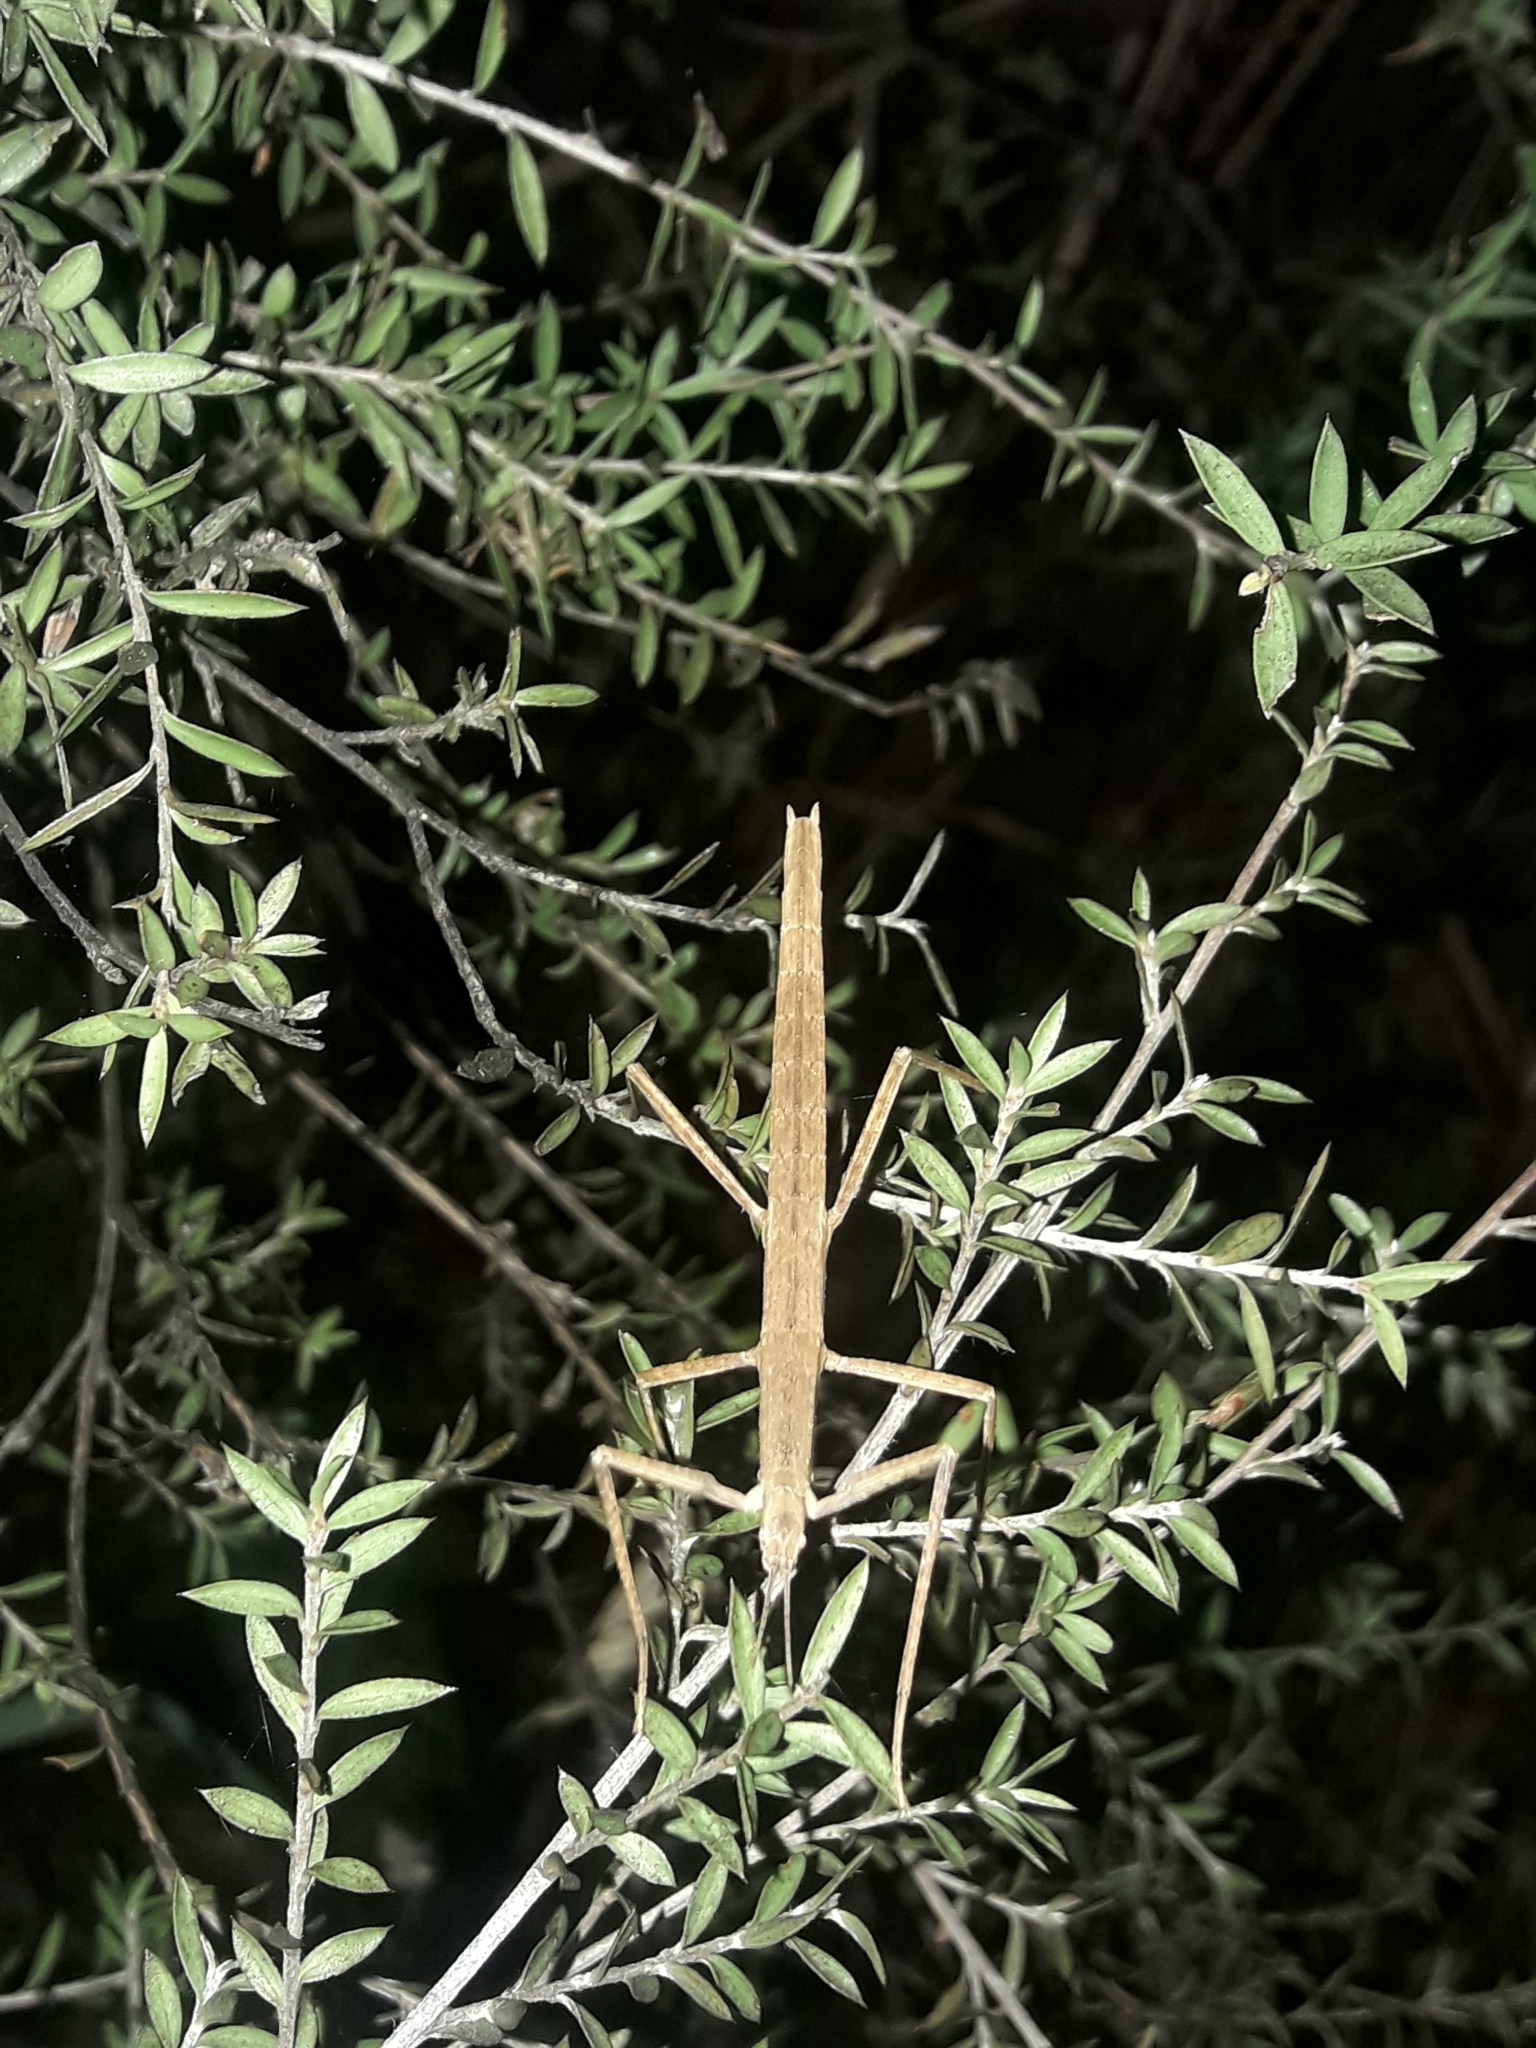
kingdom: Animalia
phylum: Arthropoda
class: Insecta
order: Phasmida
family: Phasmatidae
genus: Tectarchus
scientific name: Tectarchus huttoni
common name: The common ridge-backed stick insect
